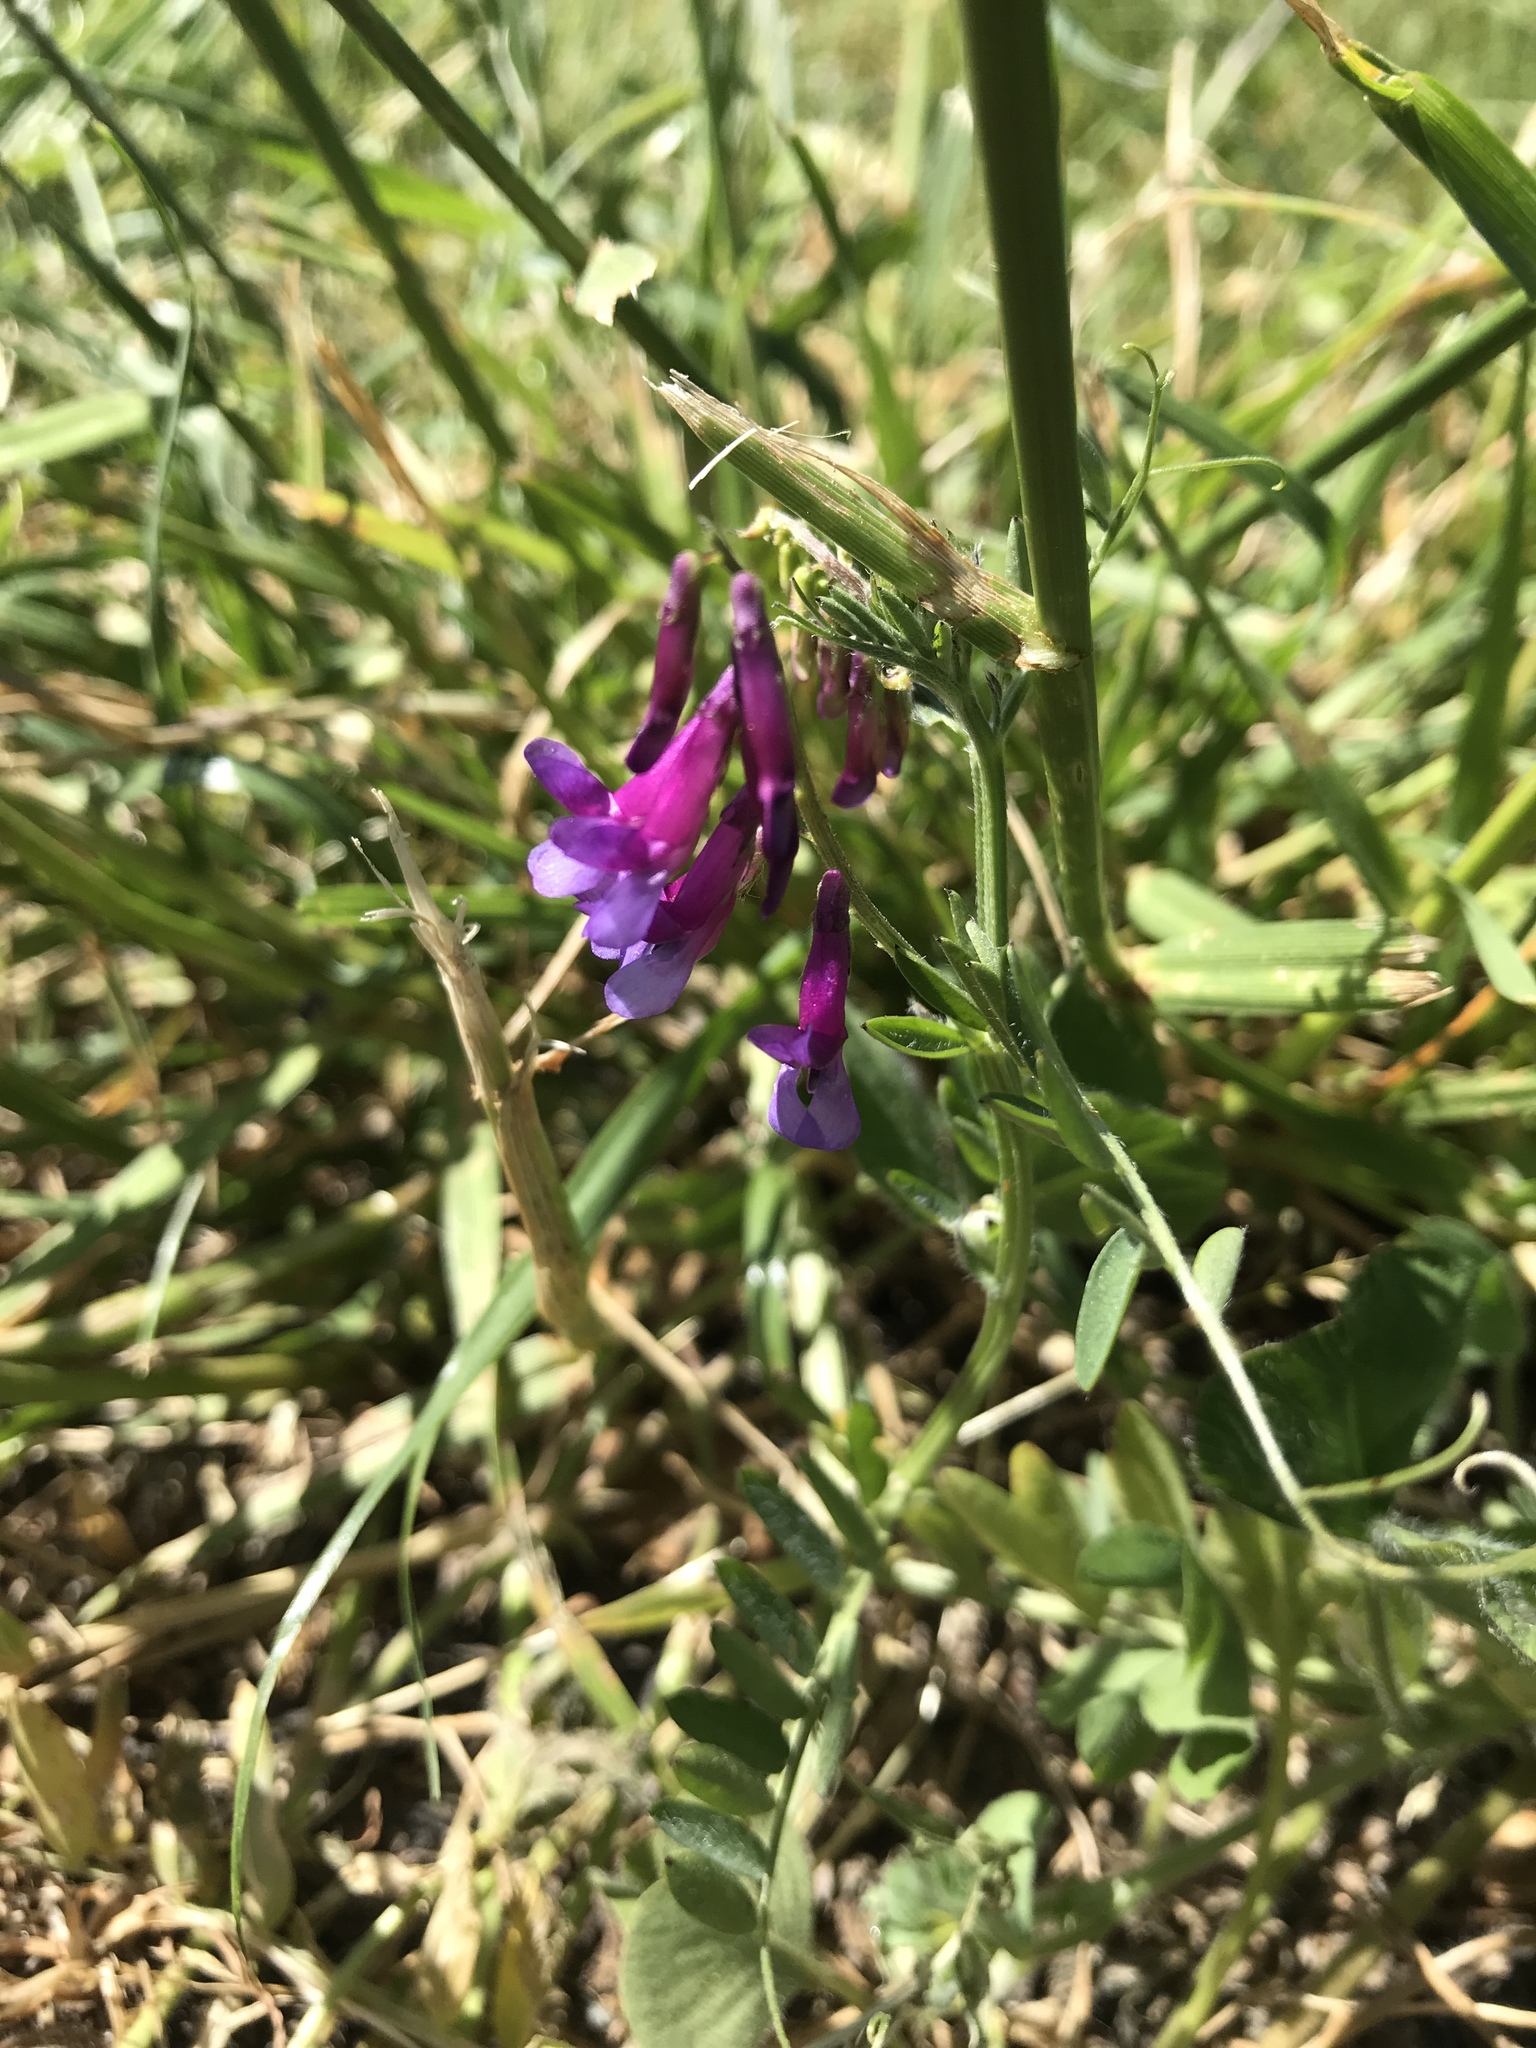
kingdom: Plantae
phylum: Tracheophyta
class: Magnoliopsida
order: Fabales
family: Fabaceae
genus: Vicia
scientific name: Vicia villosa
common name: Fodder vetch
